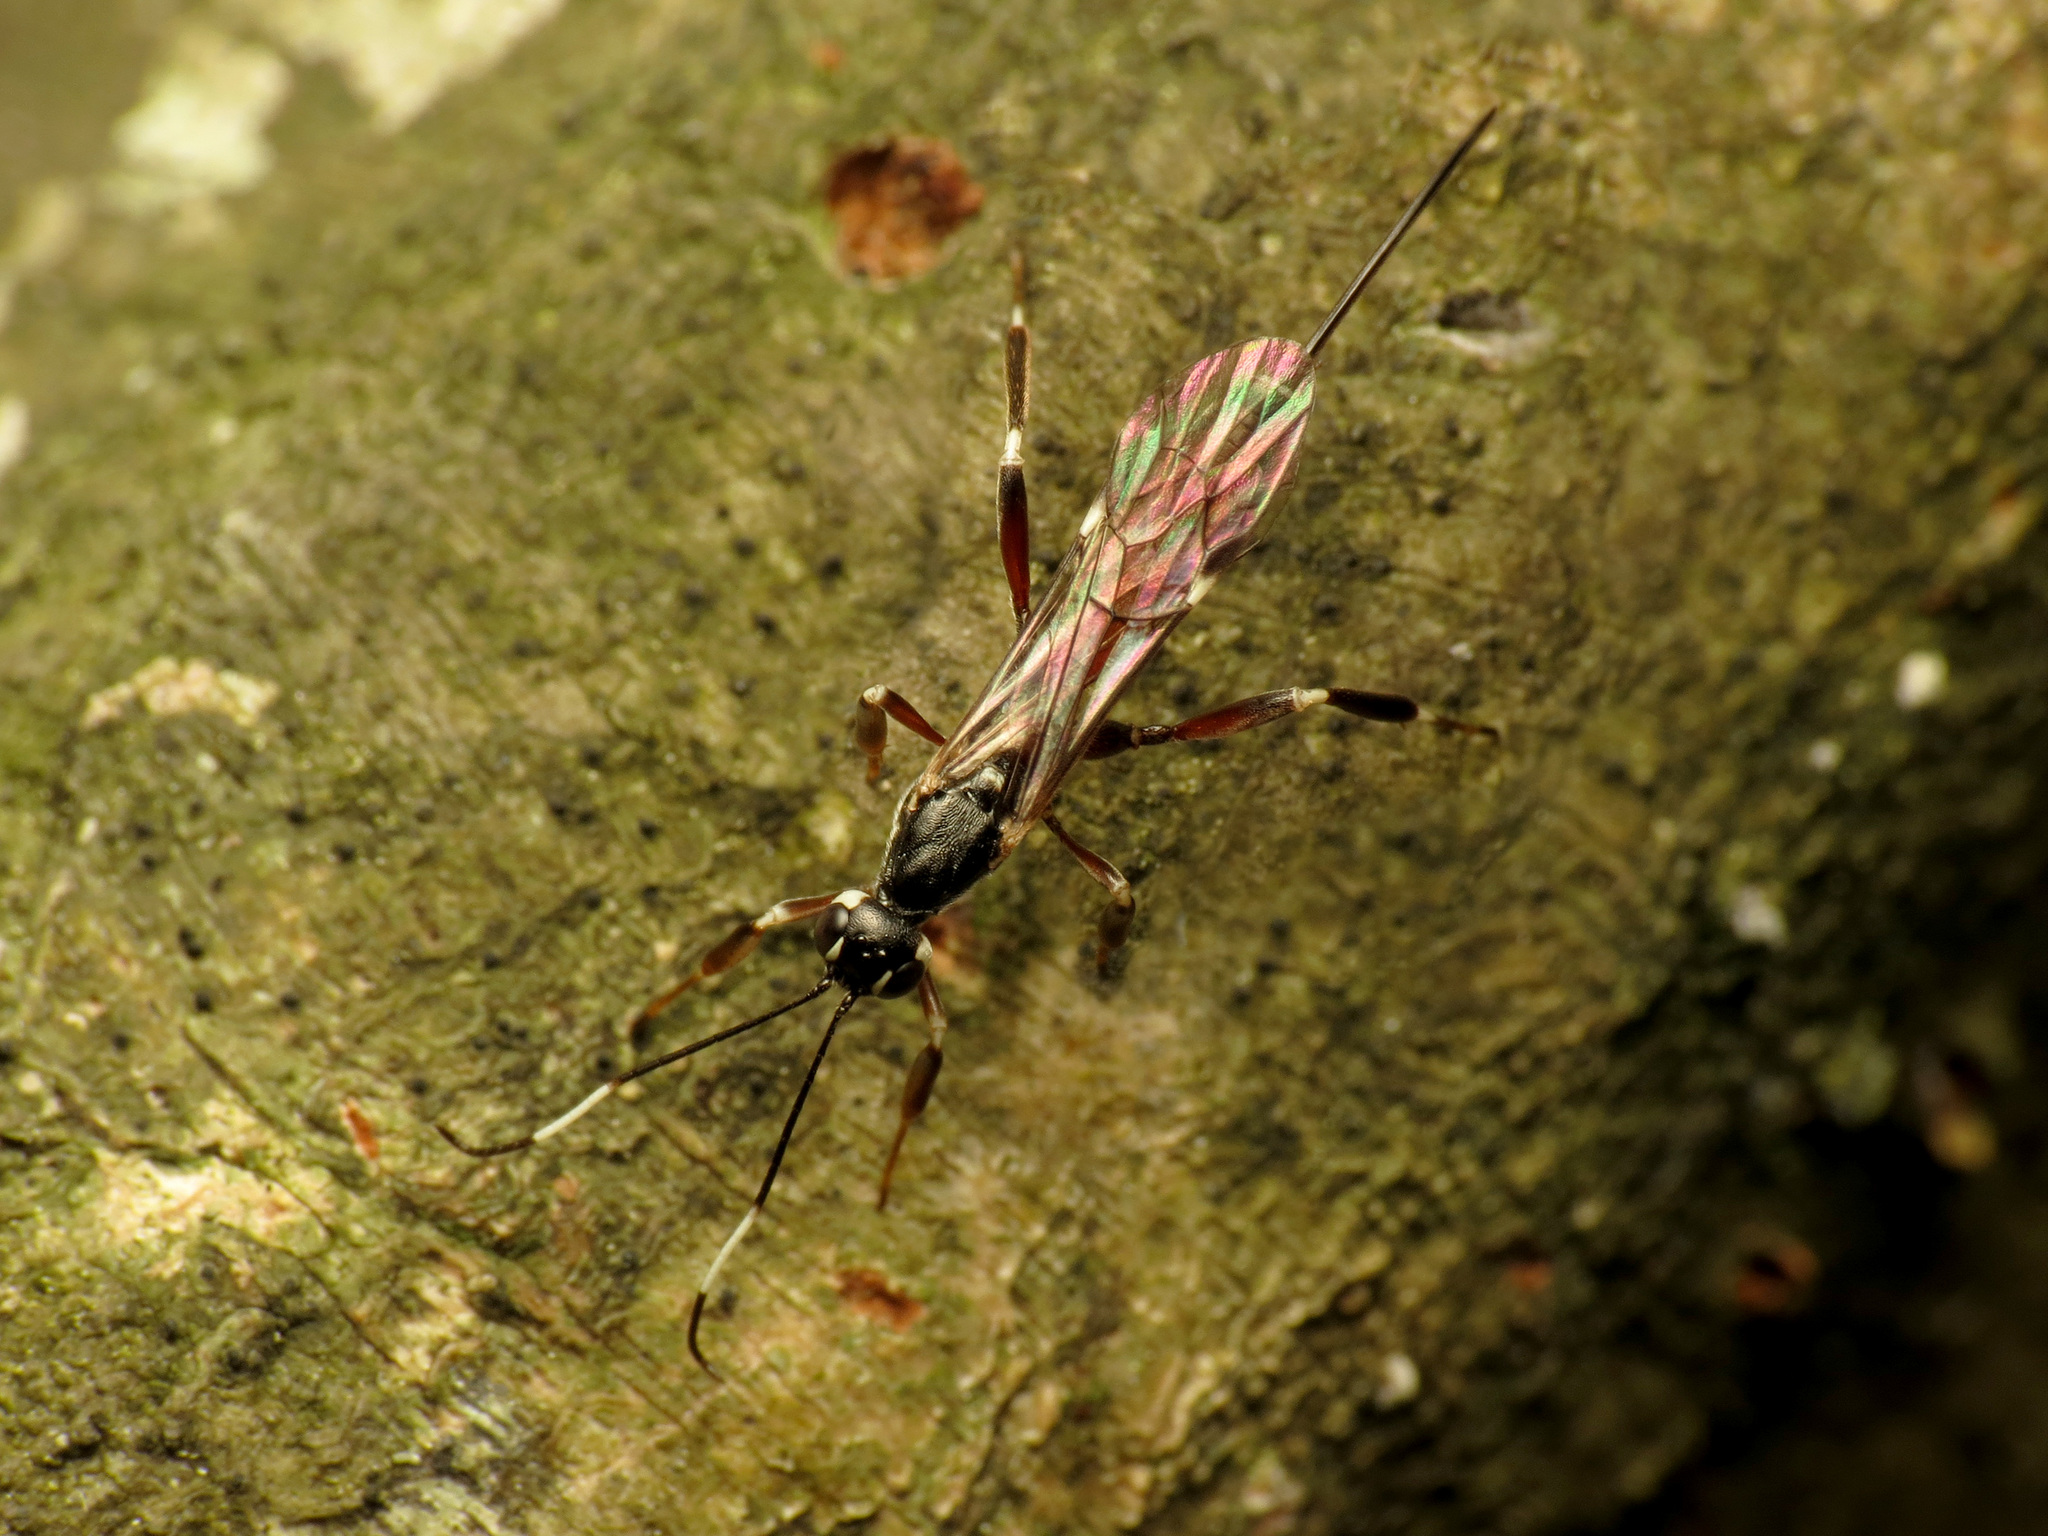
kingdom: Animalia
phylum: Arthropoda
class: Insecta
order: Hymenoptera
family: Ichneumonidae
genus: Xorides
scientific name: Xorides calidus
